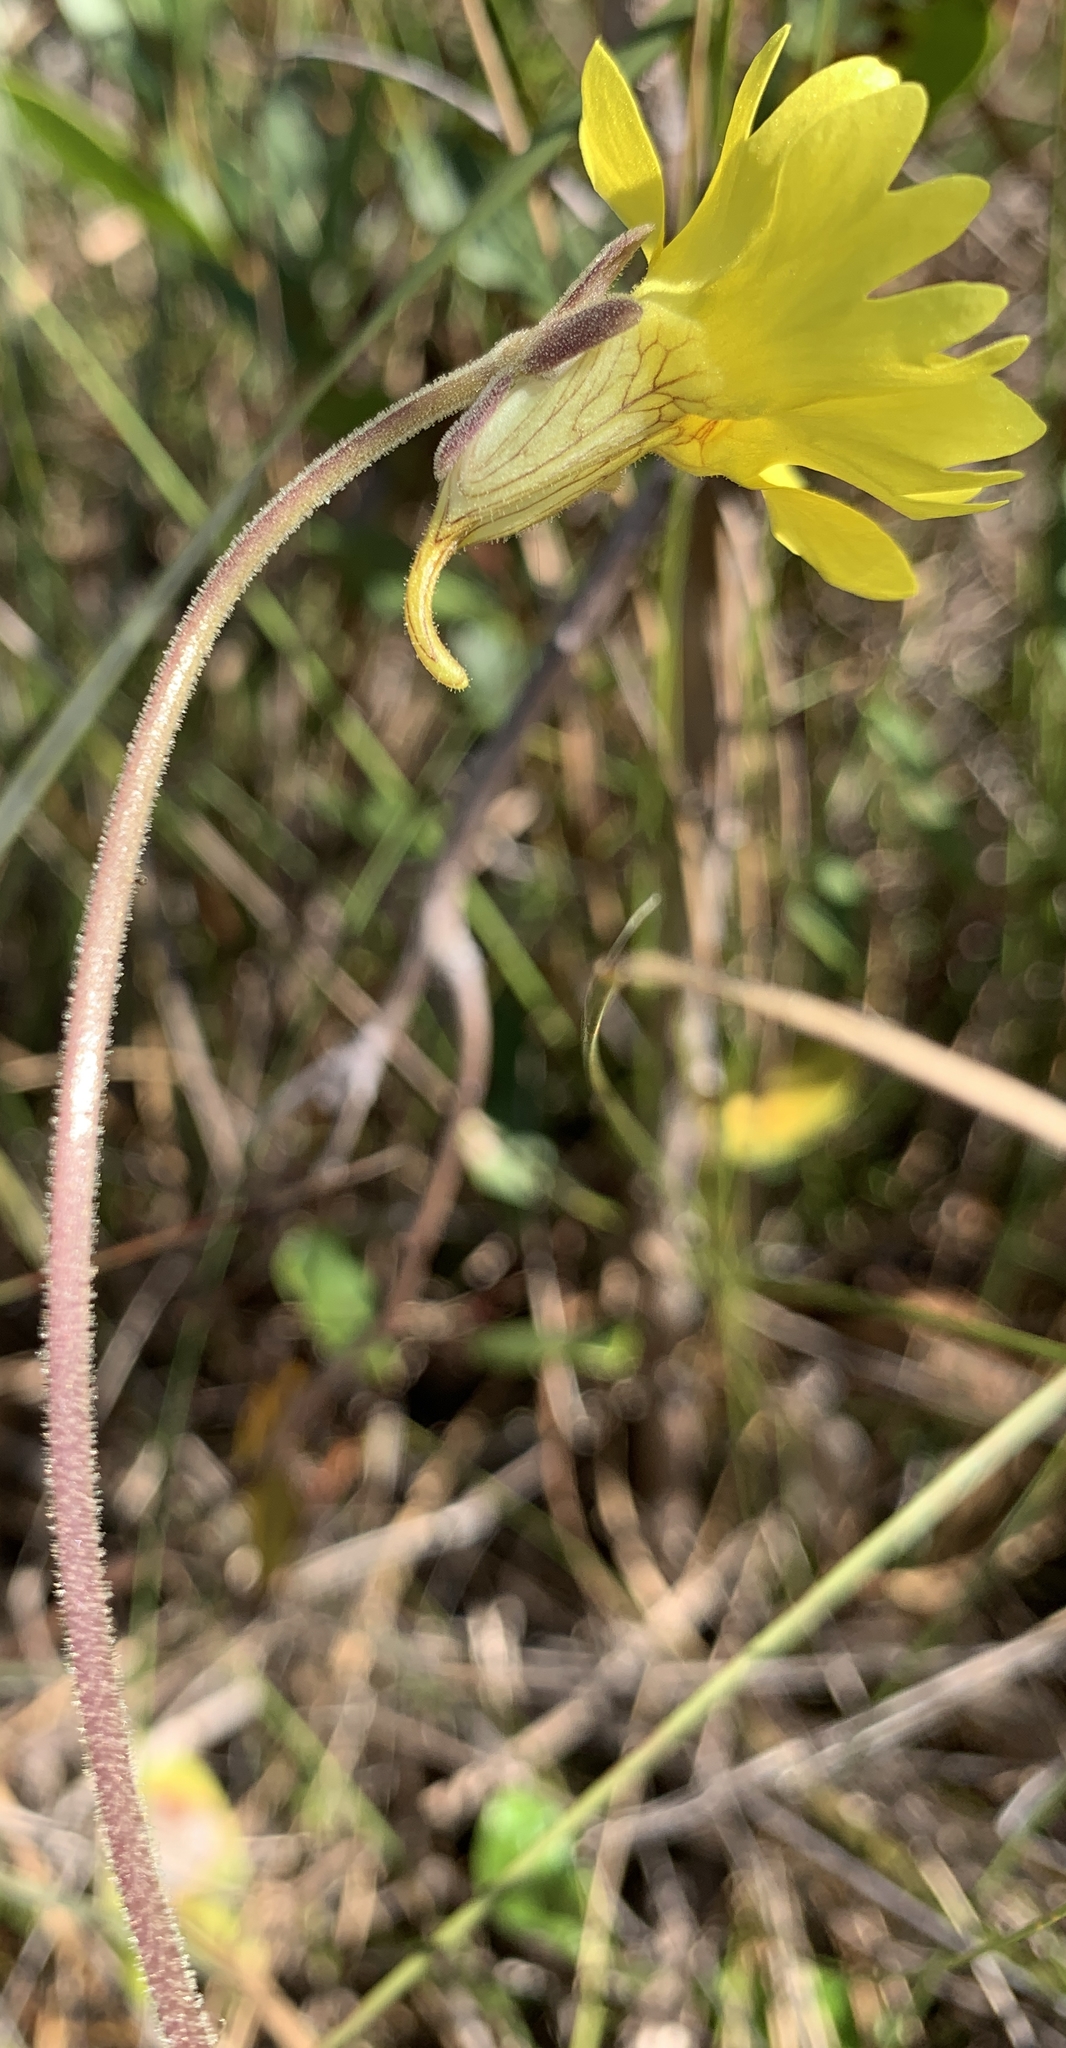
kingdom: Plantae
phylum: Tracheophyta
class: Magnoliopsida
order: Lamiales
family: Lentibulariaceae
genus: Pinguicula
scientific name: Pinguicula lutea
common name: Yellow butterwort
